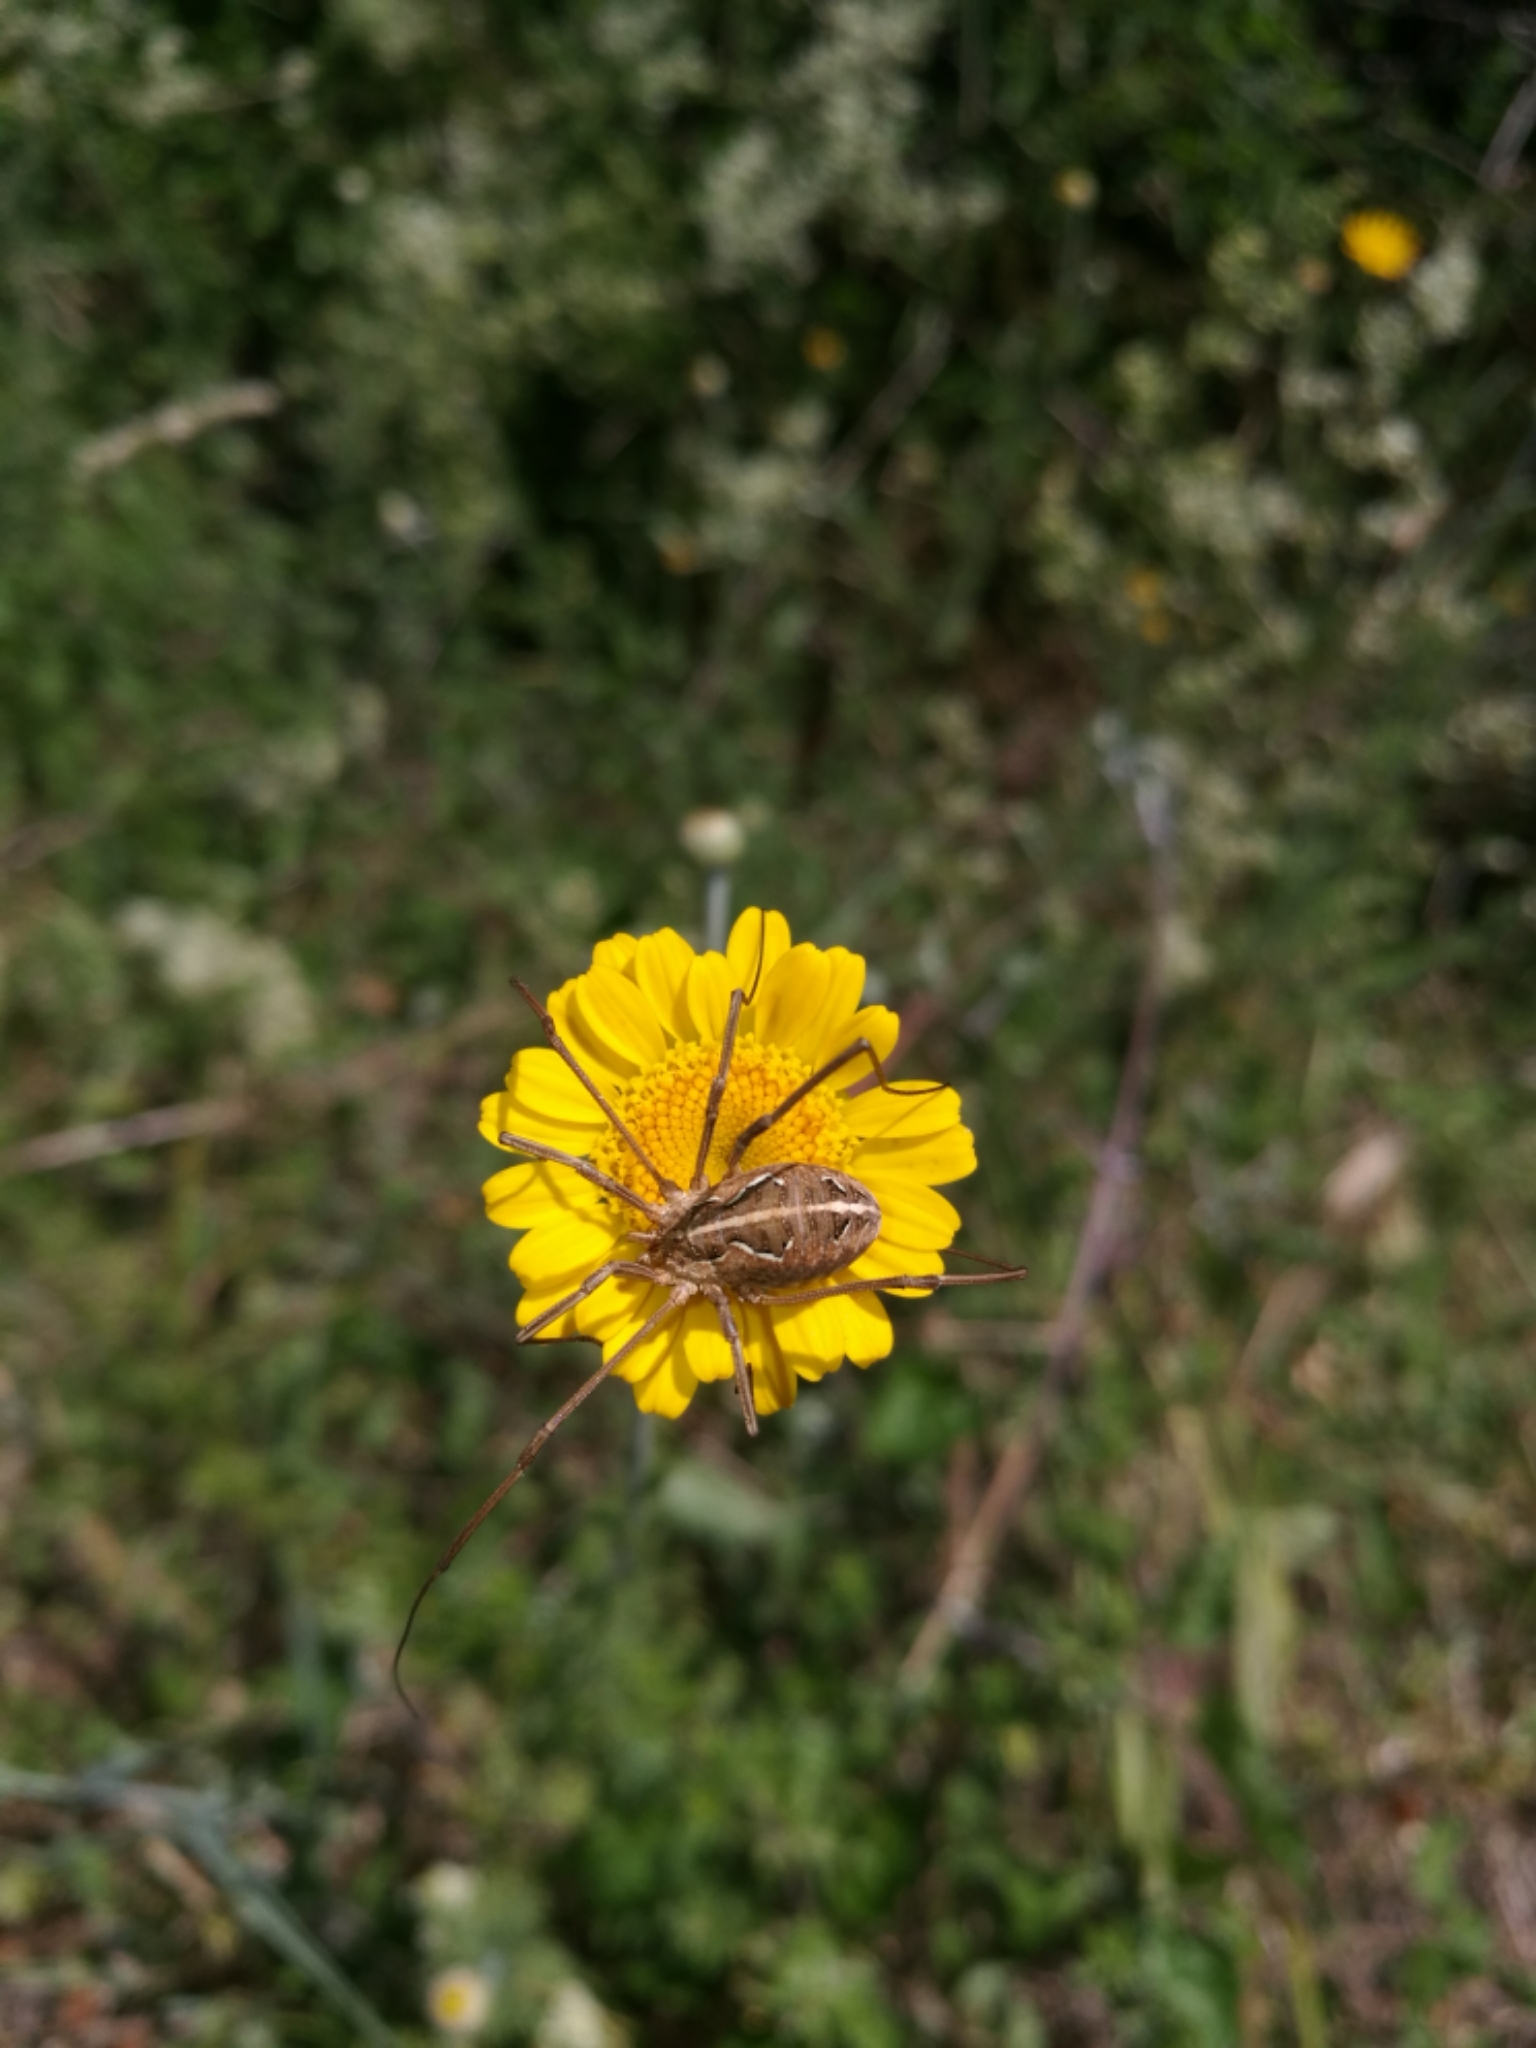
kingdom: Animalia
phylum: Arthropoda
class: Arachnida
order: Opiliones
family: Phalangiidae
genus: Metaphalangium
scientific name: Metaphalangium cirtanum
